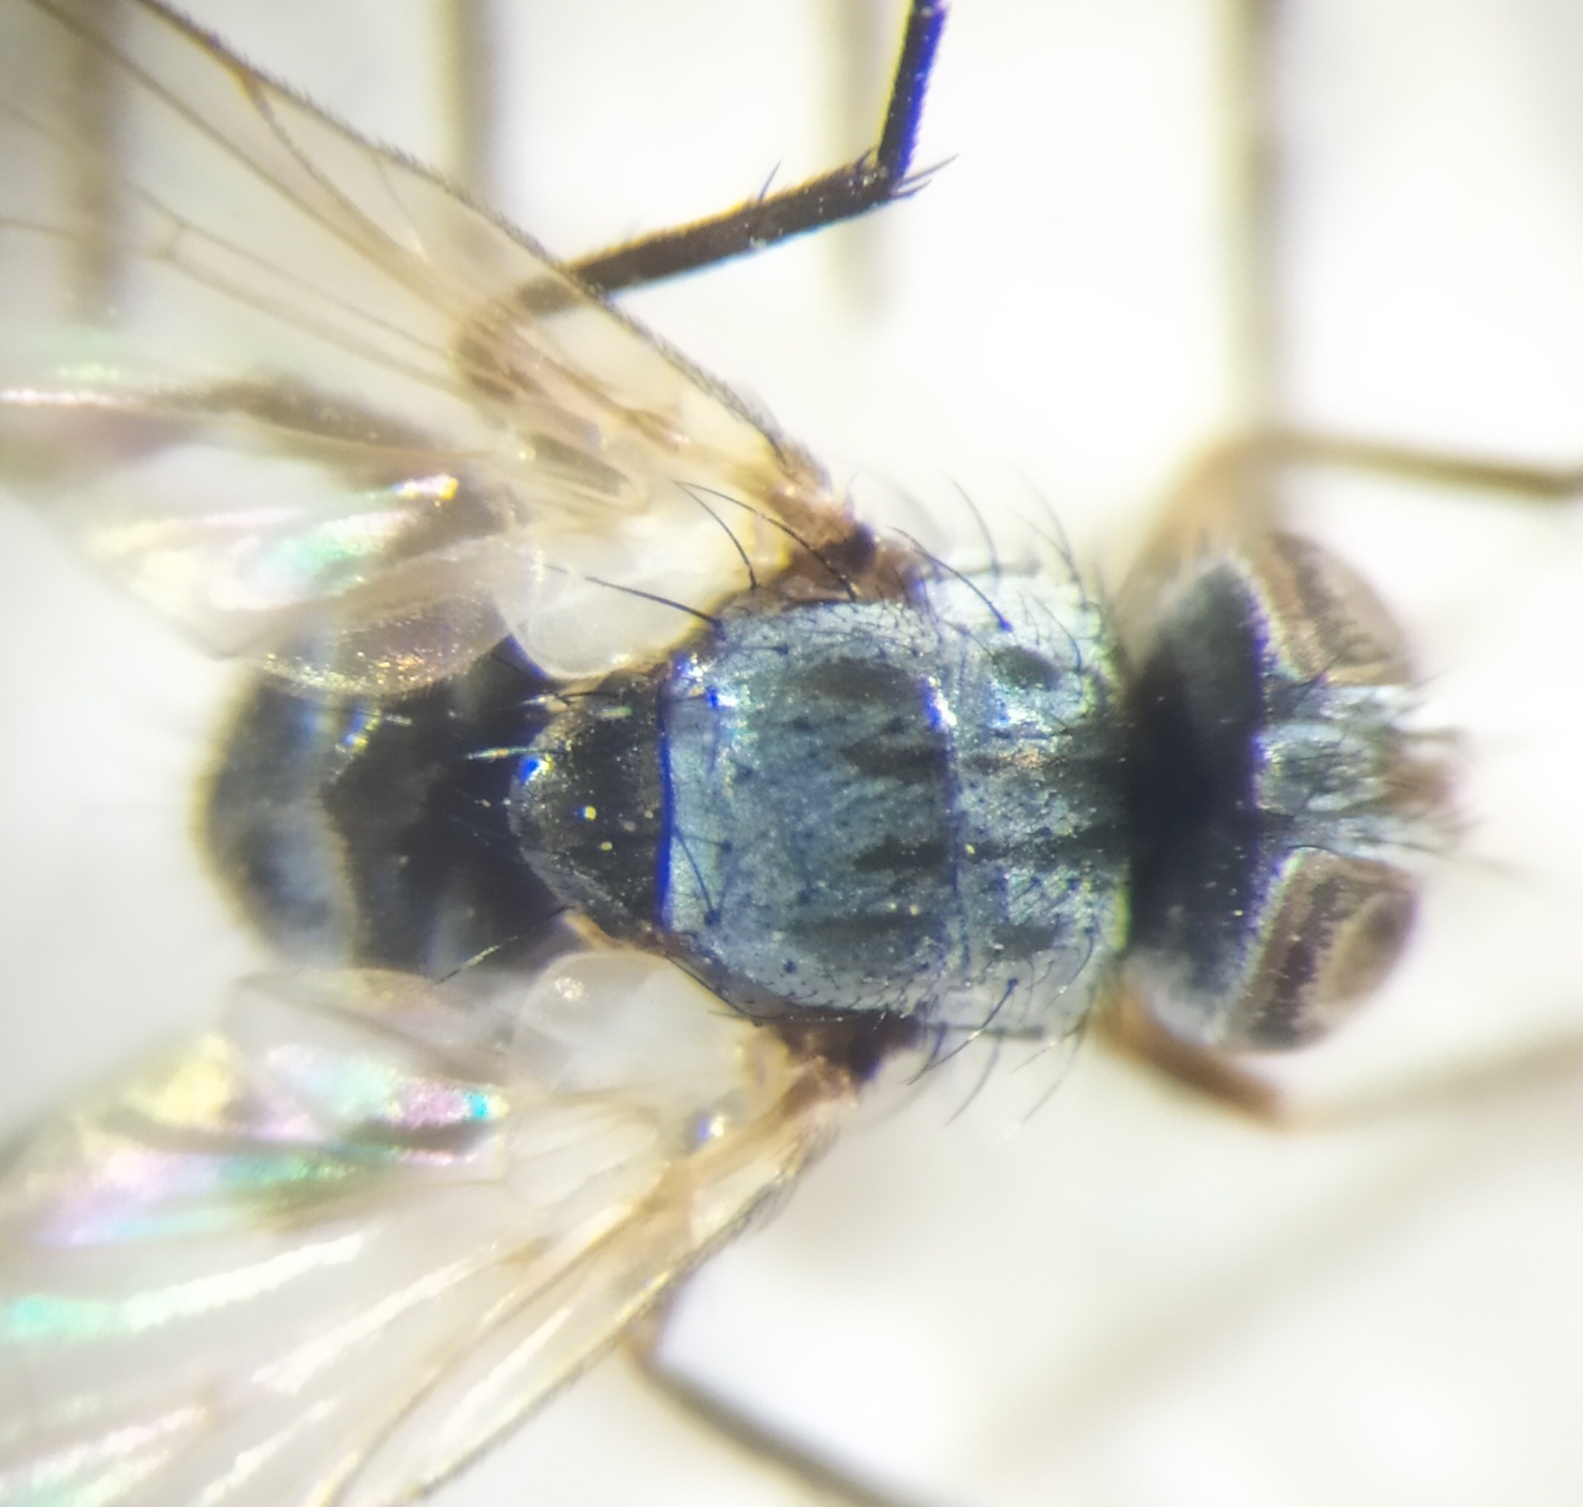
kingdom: Animalia
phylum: Arthropoda
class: Insecta
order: Diptera
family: Tachinidae
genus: Microsoma
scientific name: Microsoma exiguum
